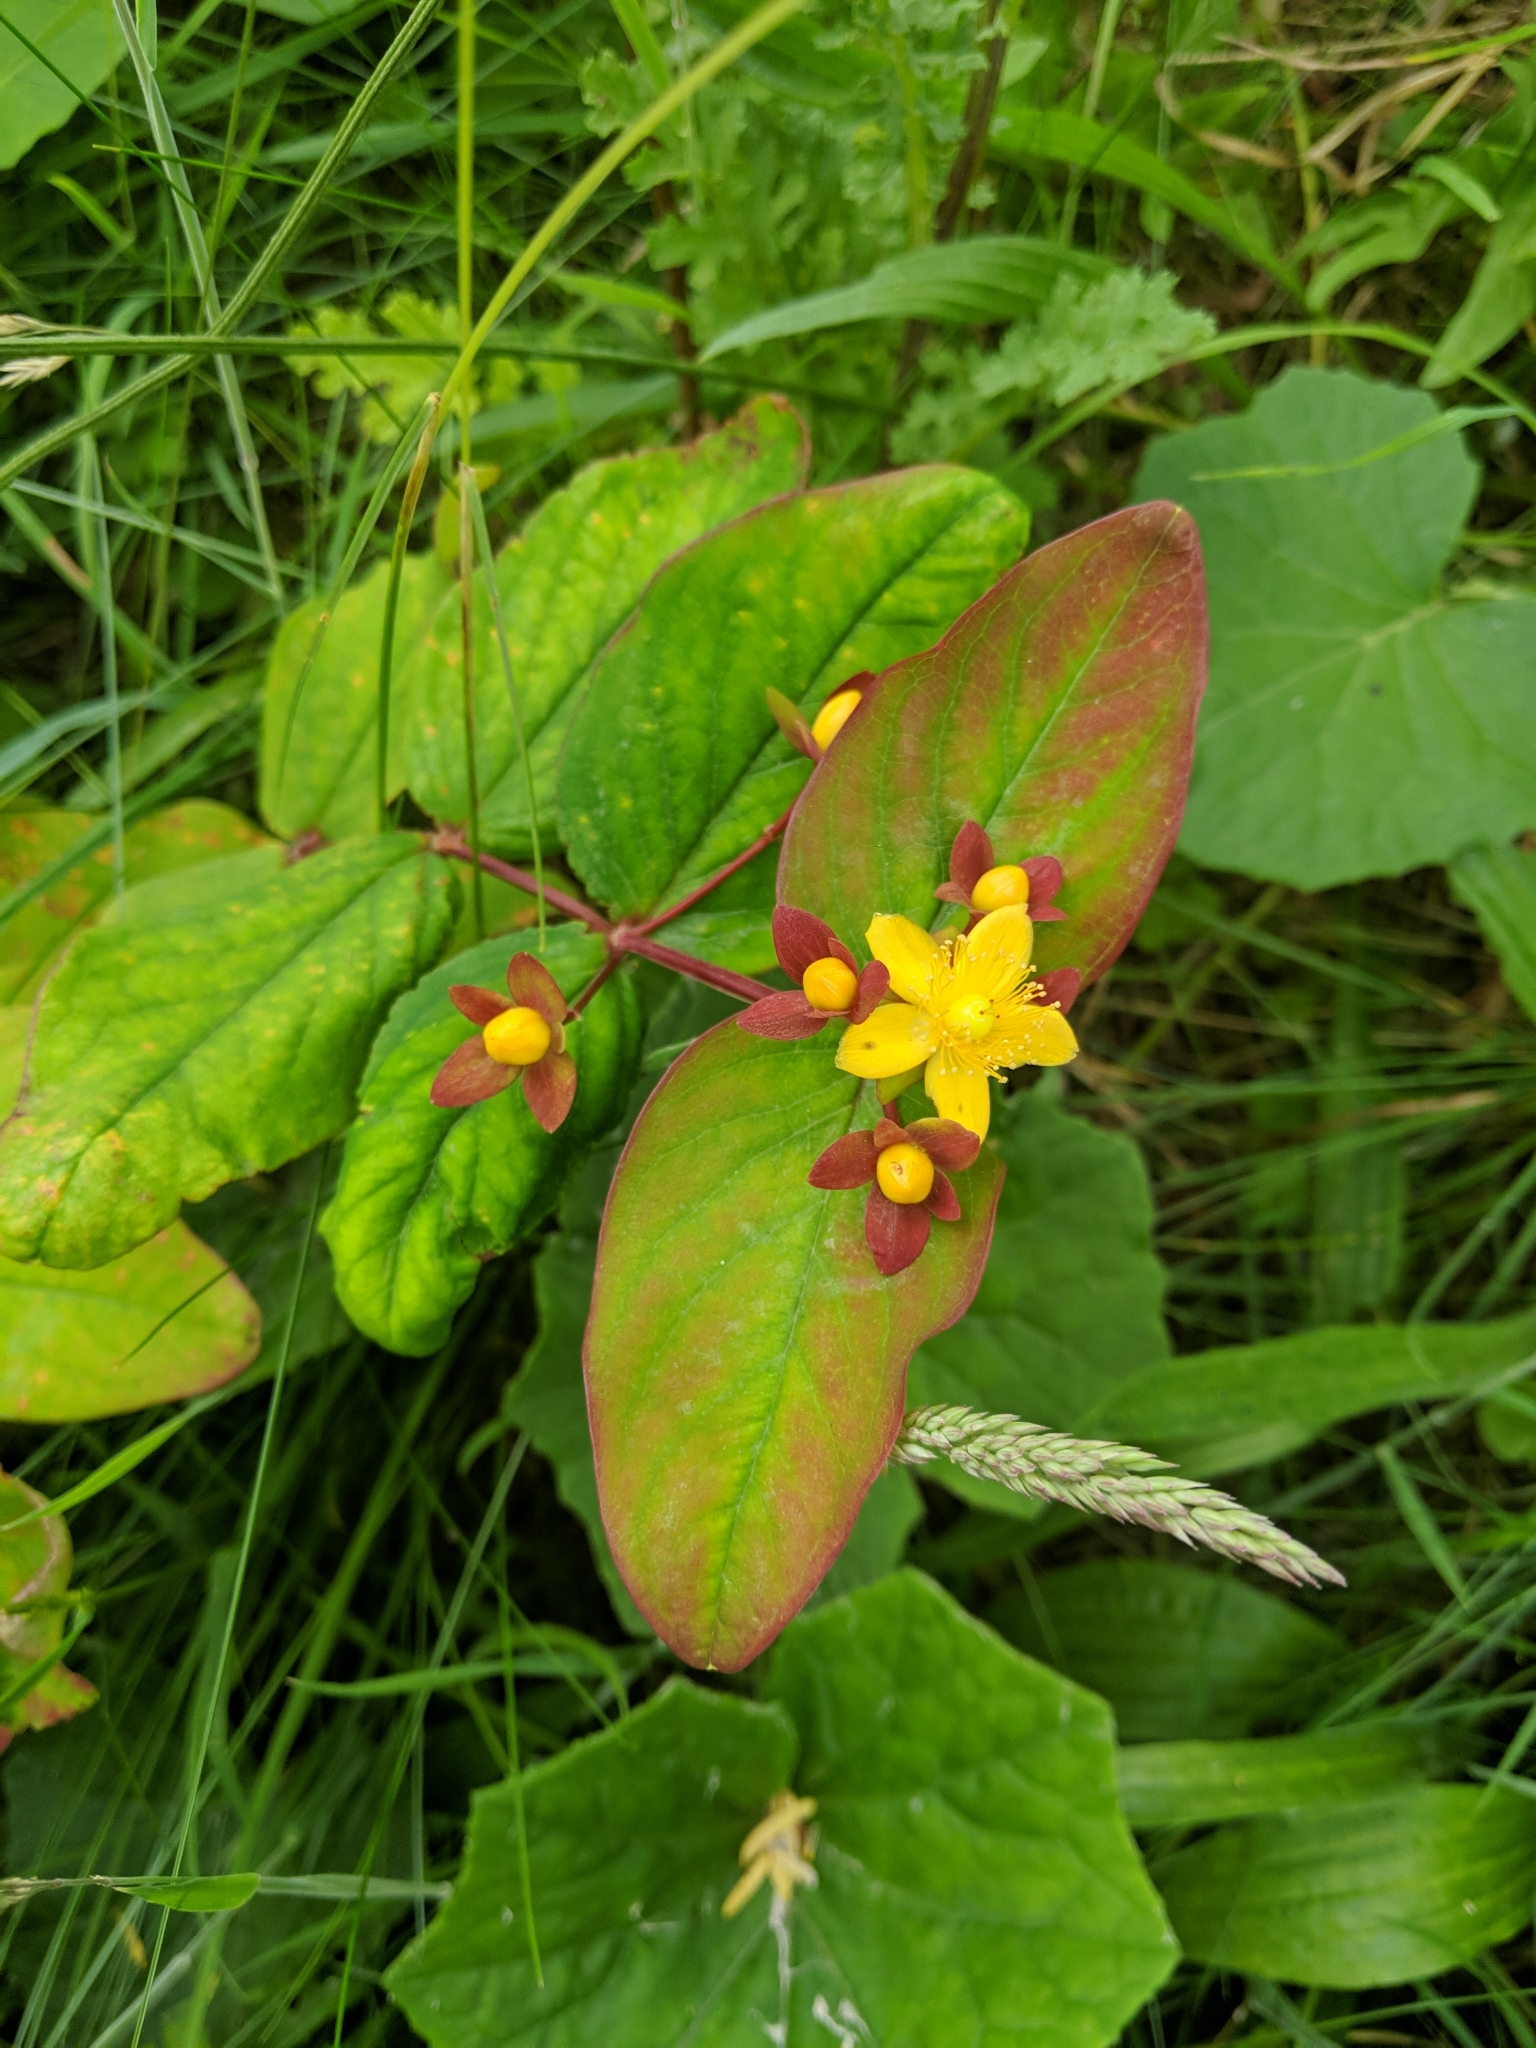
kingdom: Plantae
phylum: Tracheophyta
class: Magnoliopsida
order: Malpighiales
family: Hypericaceae
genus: Hypericum
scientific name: Hypericum androsaemum
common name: Sweet-amber
